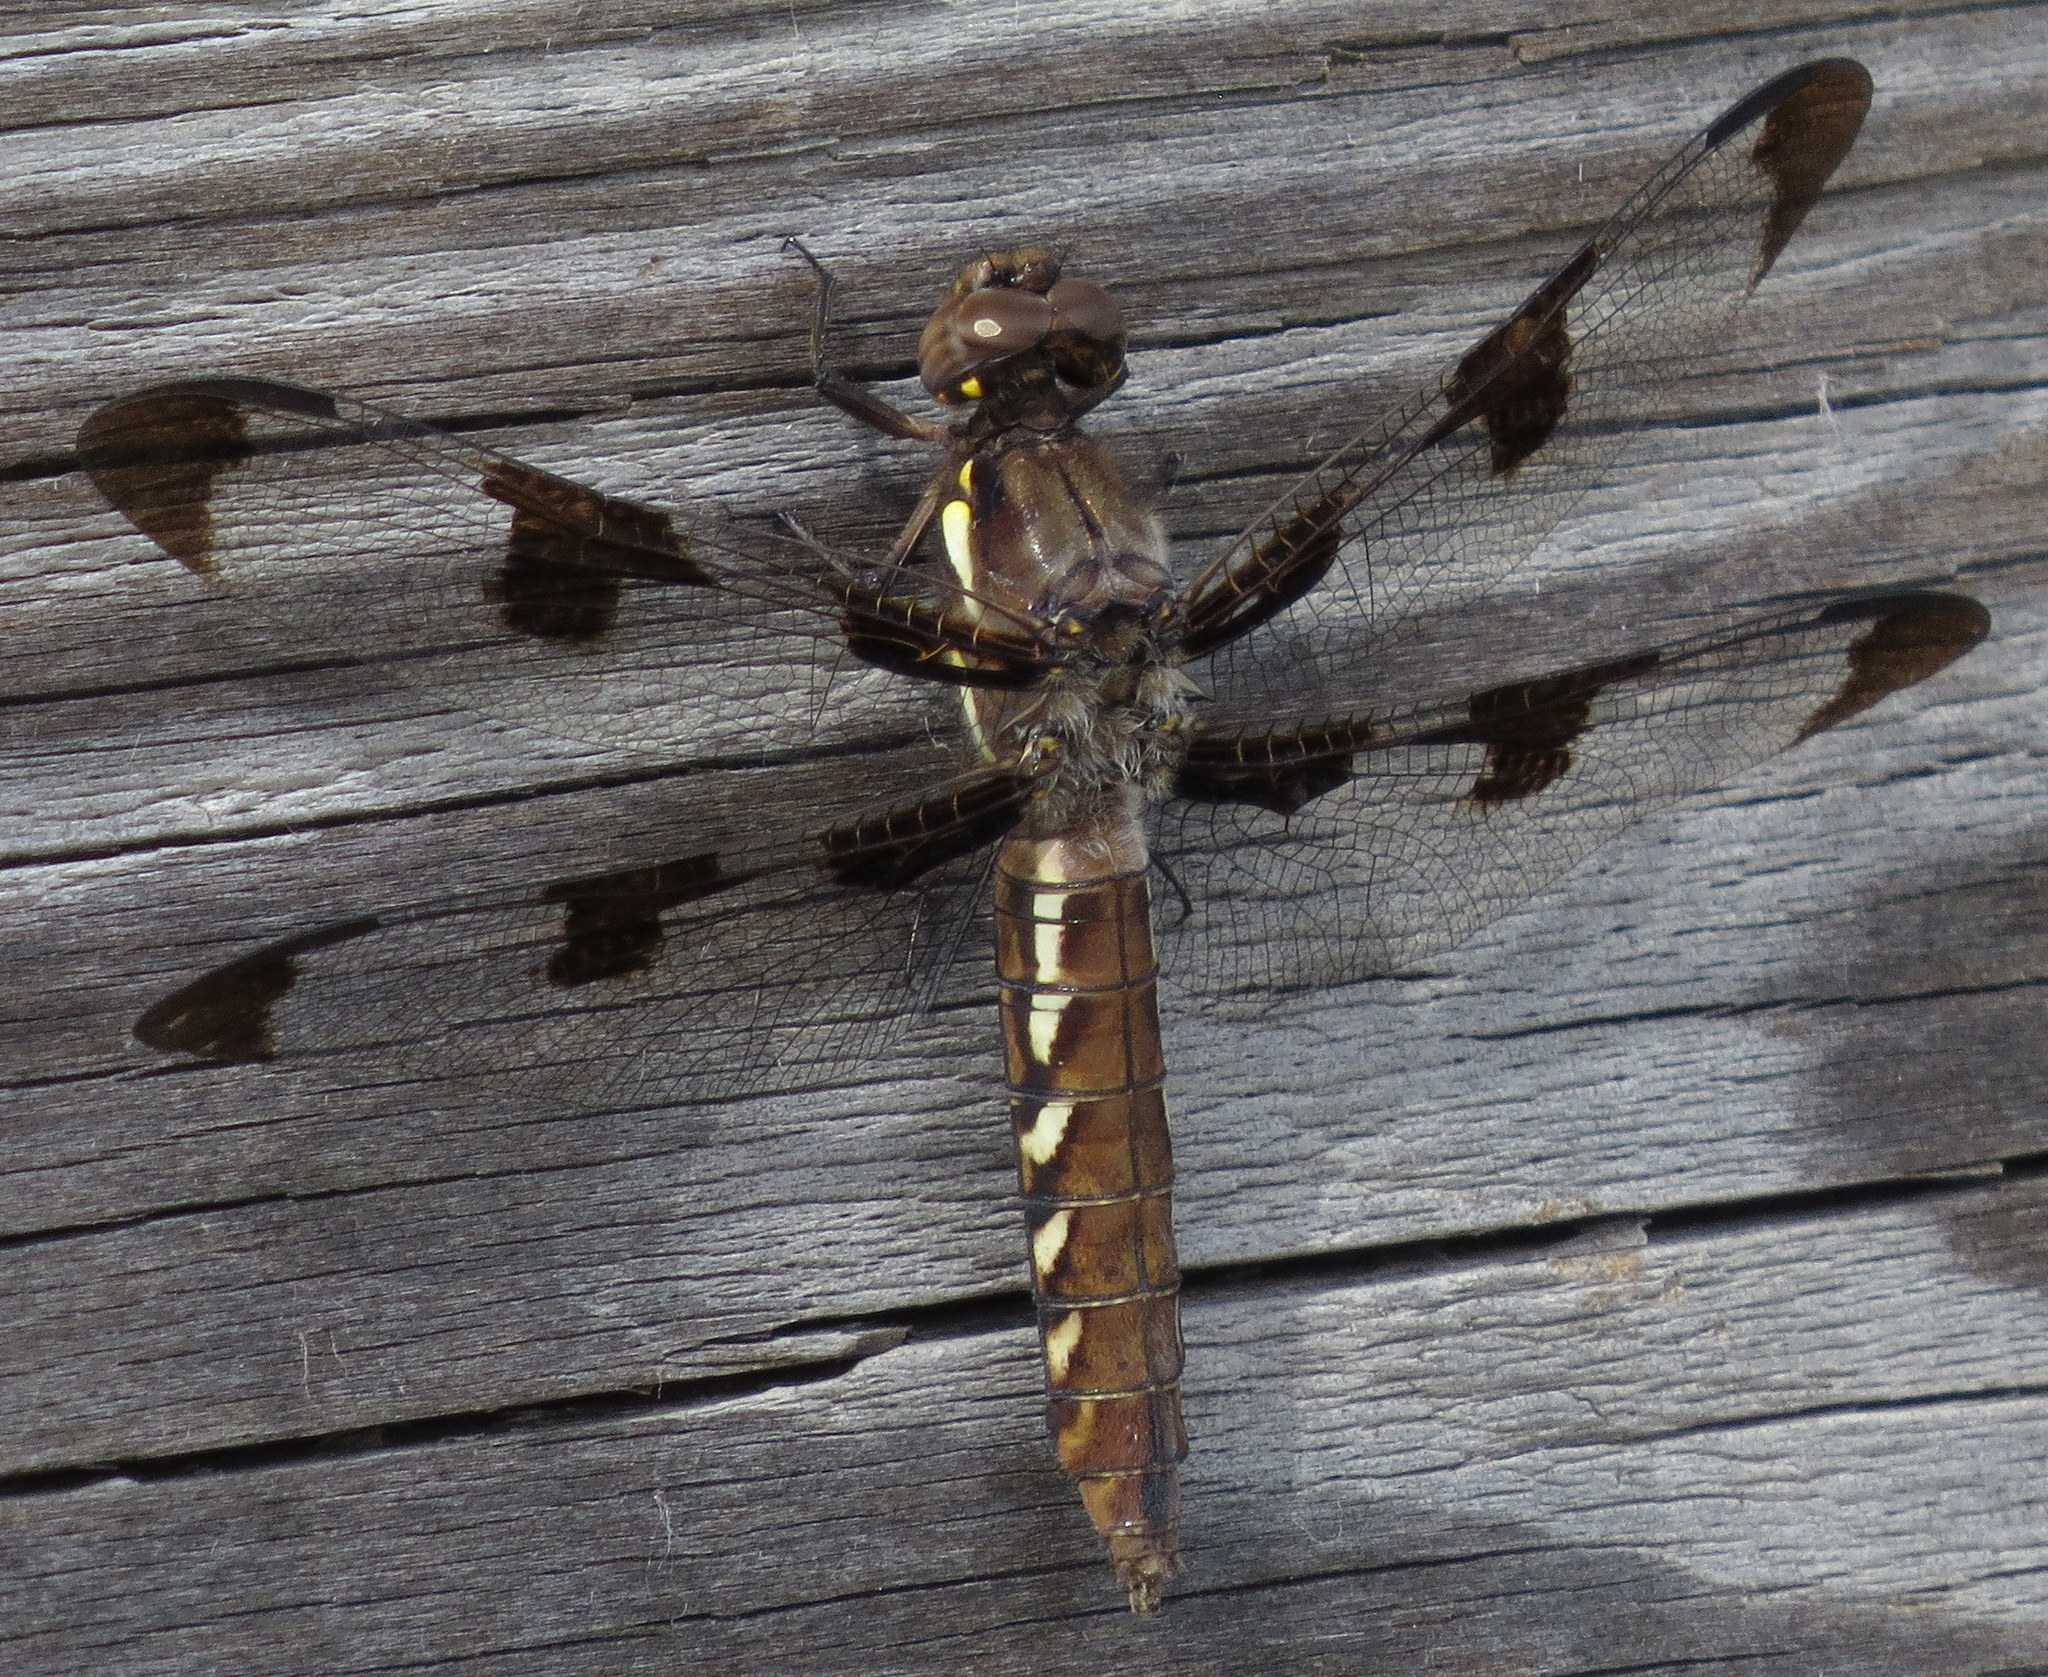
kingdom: Animalia
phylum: Arthropoda
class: Insecta
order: Odonata
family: Libellulidae
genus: Plathemis
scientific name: Plathemis lydia
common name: Common whitetail
